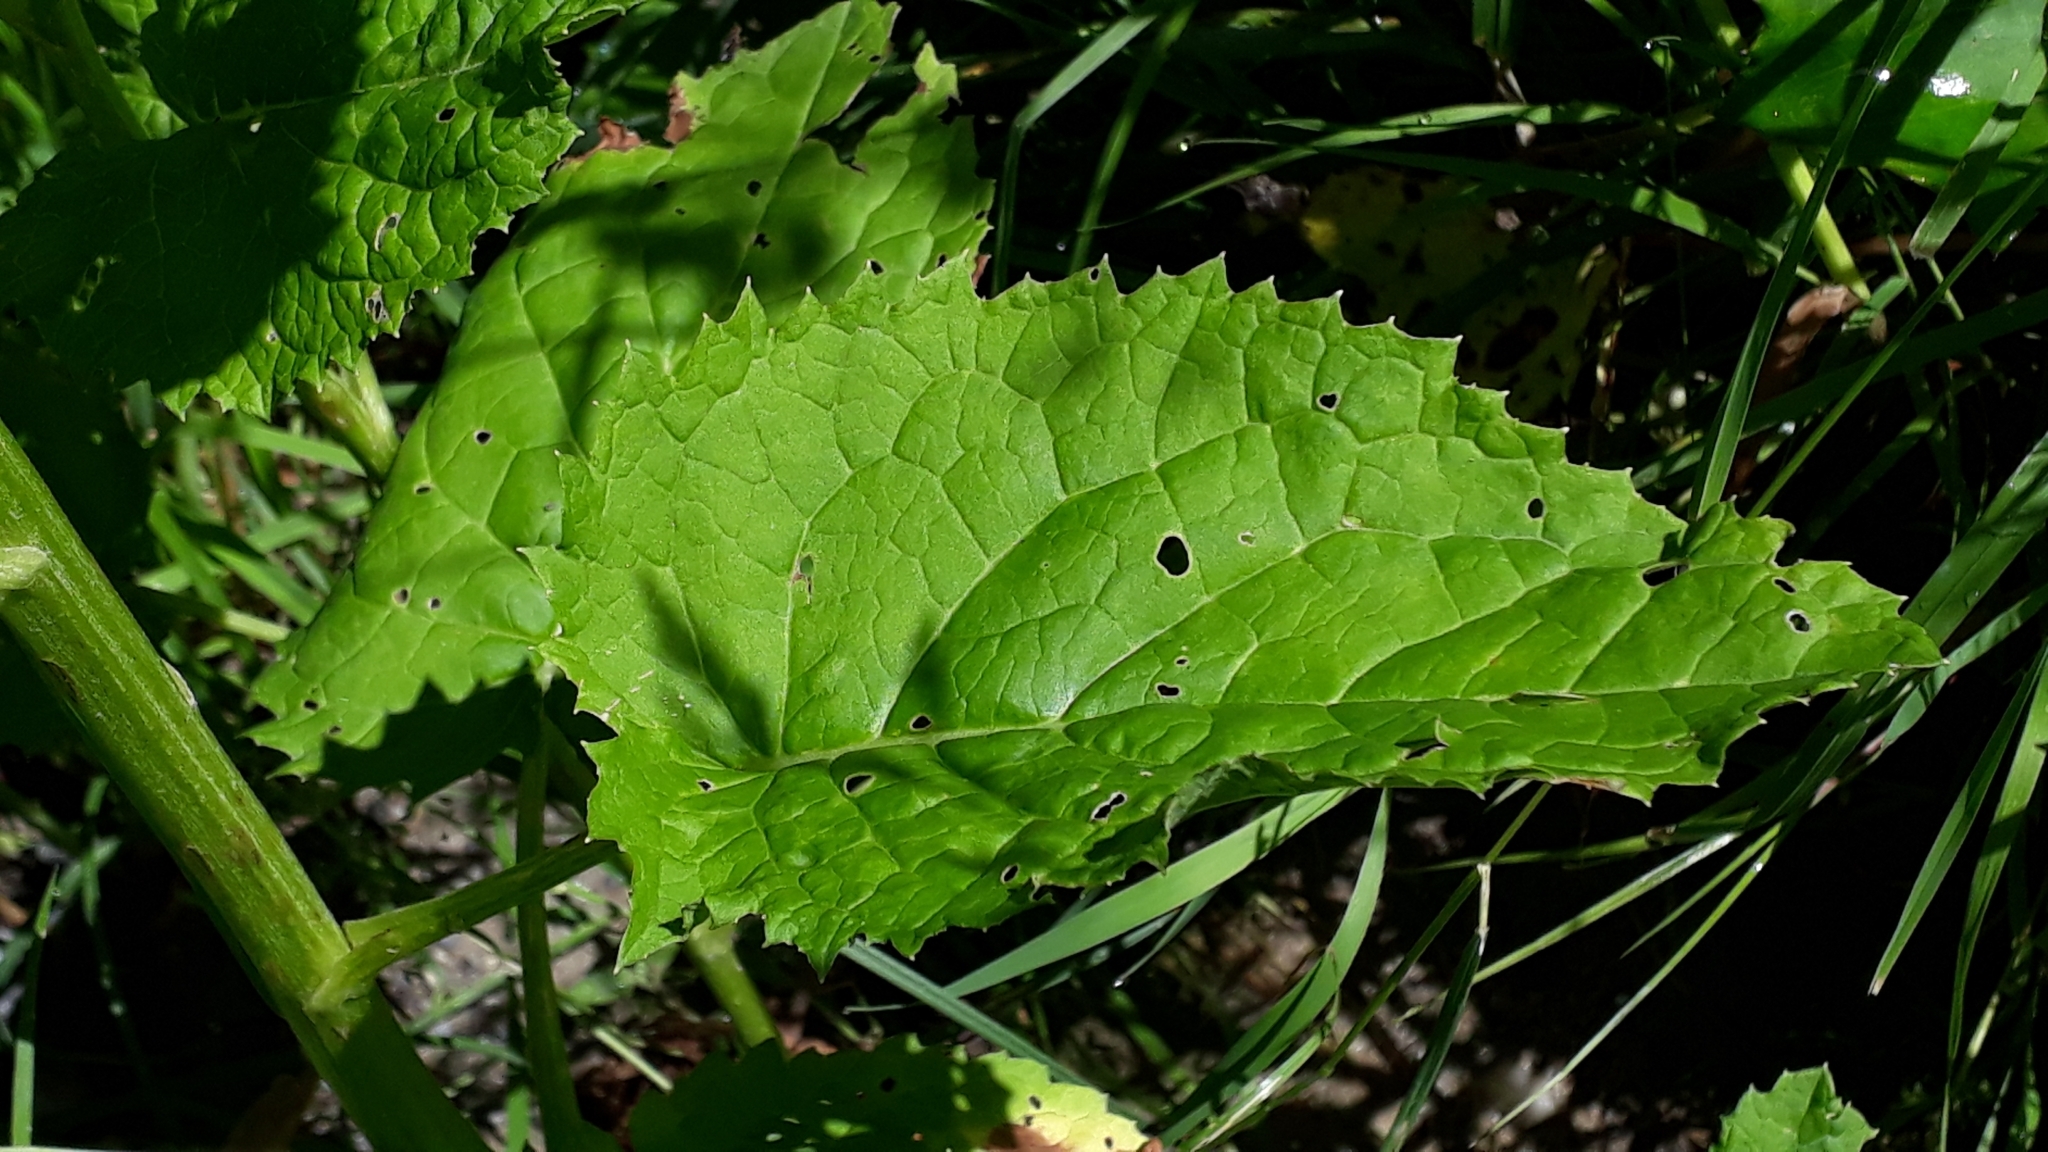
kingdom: Plantae
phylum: Tracheophyta
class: Magnoliopsida
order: Asterales
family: Asteraceae
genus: Jacobaea
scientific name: Jacobaea alpina
